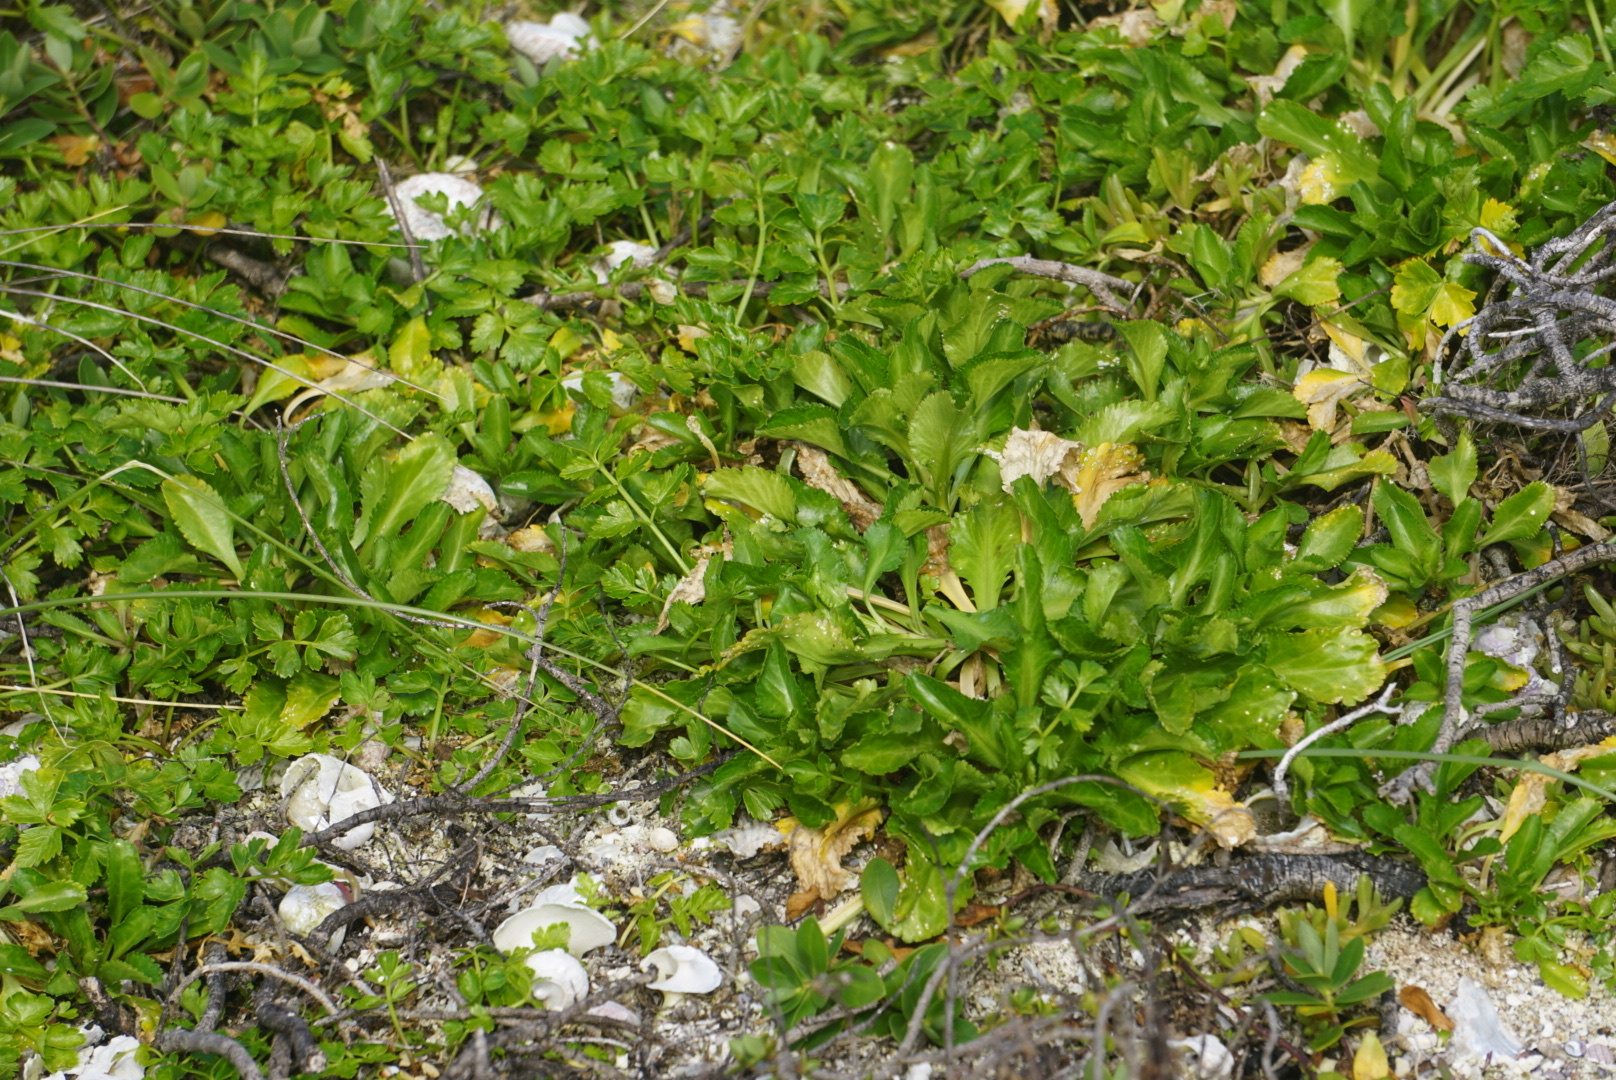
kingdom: Plantae
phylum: Tracheophyta
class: Magnoliopsida
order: Brassicales
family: Brassicaceae
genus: Lepidium
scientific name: Lepidium rekohuense
